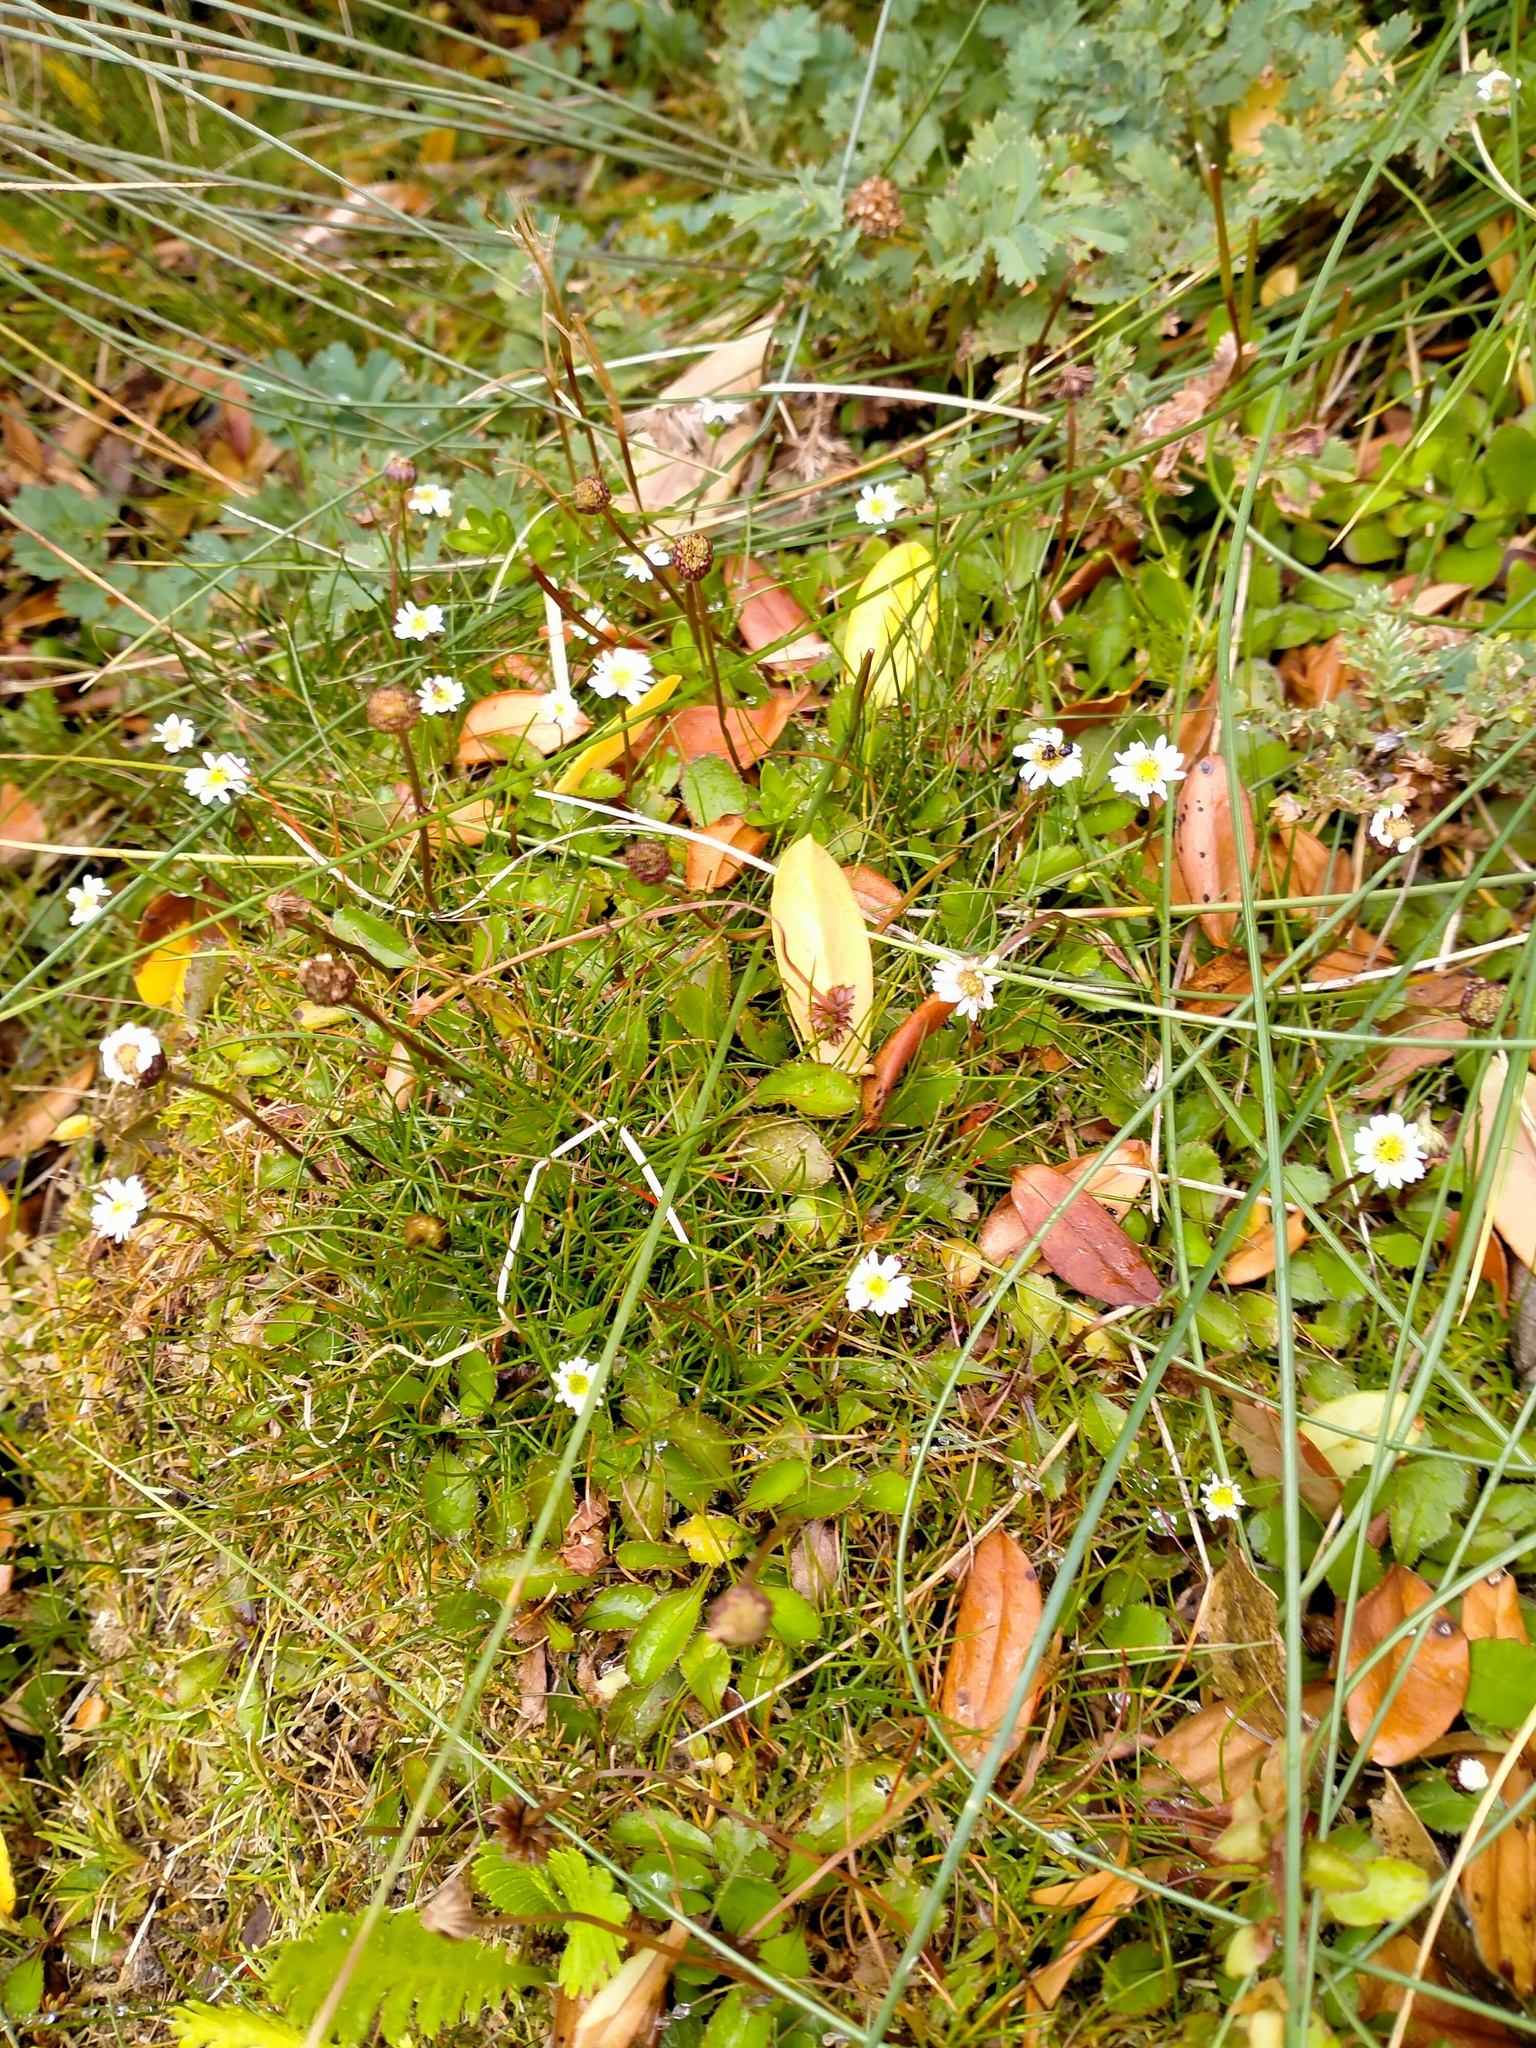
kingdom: Plantae
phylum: Tracheophyta
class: Magnoliopsida
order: Asterales
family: Asteraceae
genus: Lagenophora
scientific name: Lagenophora petiolata
